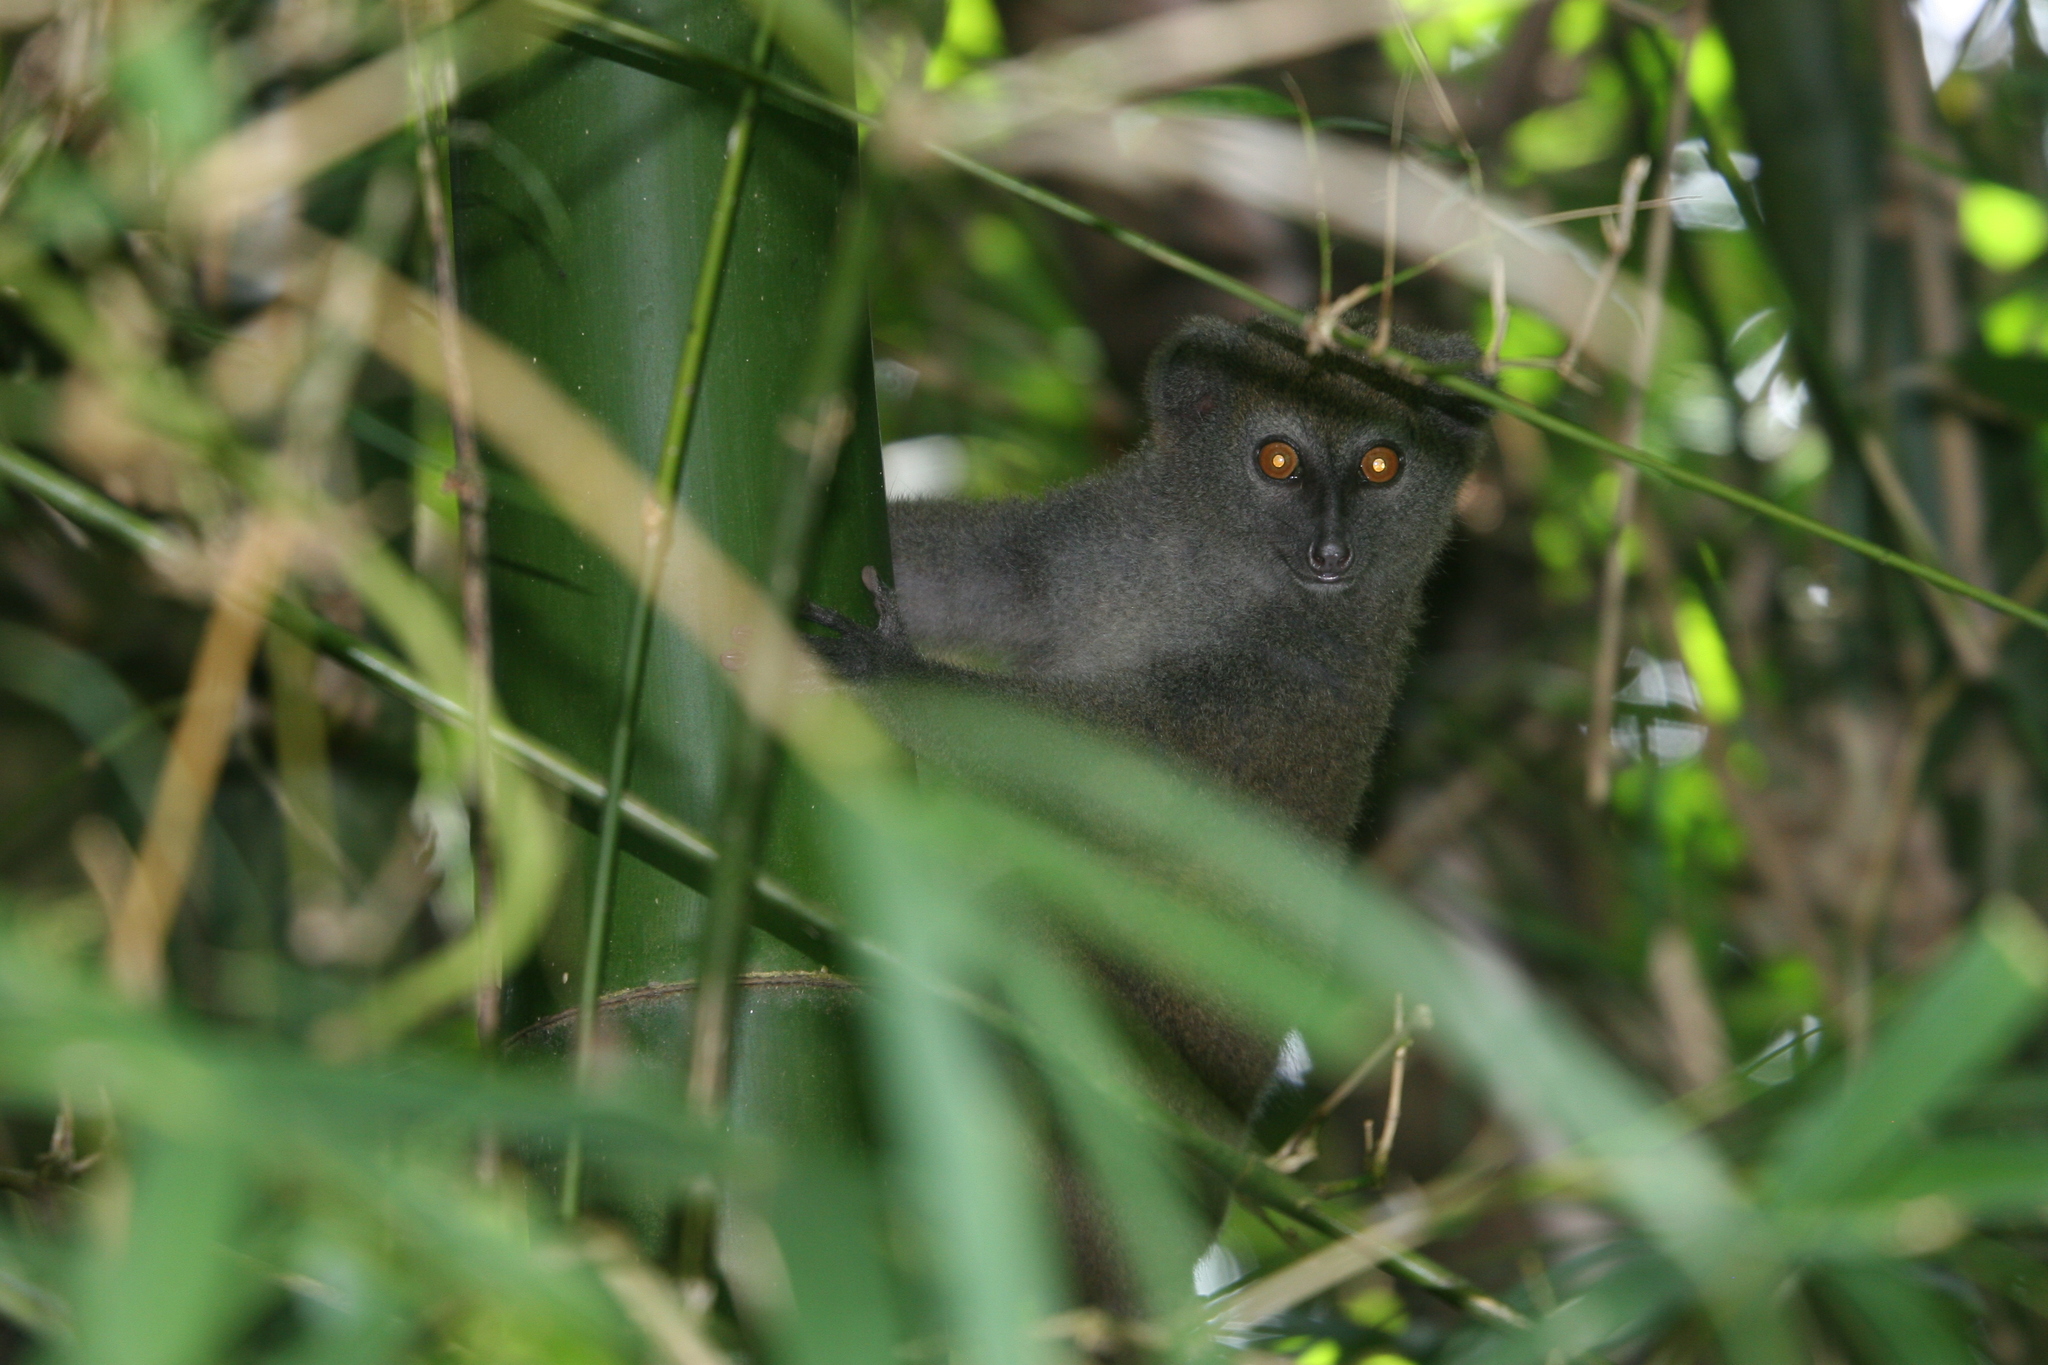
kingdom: Animalia
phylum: Chordata
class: Mammalia
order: Primates
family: Lemuridae
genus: Hapalemur
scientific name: Hapalemur griseus
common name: Gray bamboo lemur
